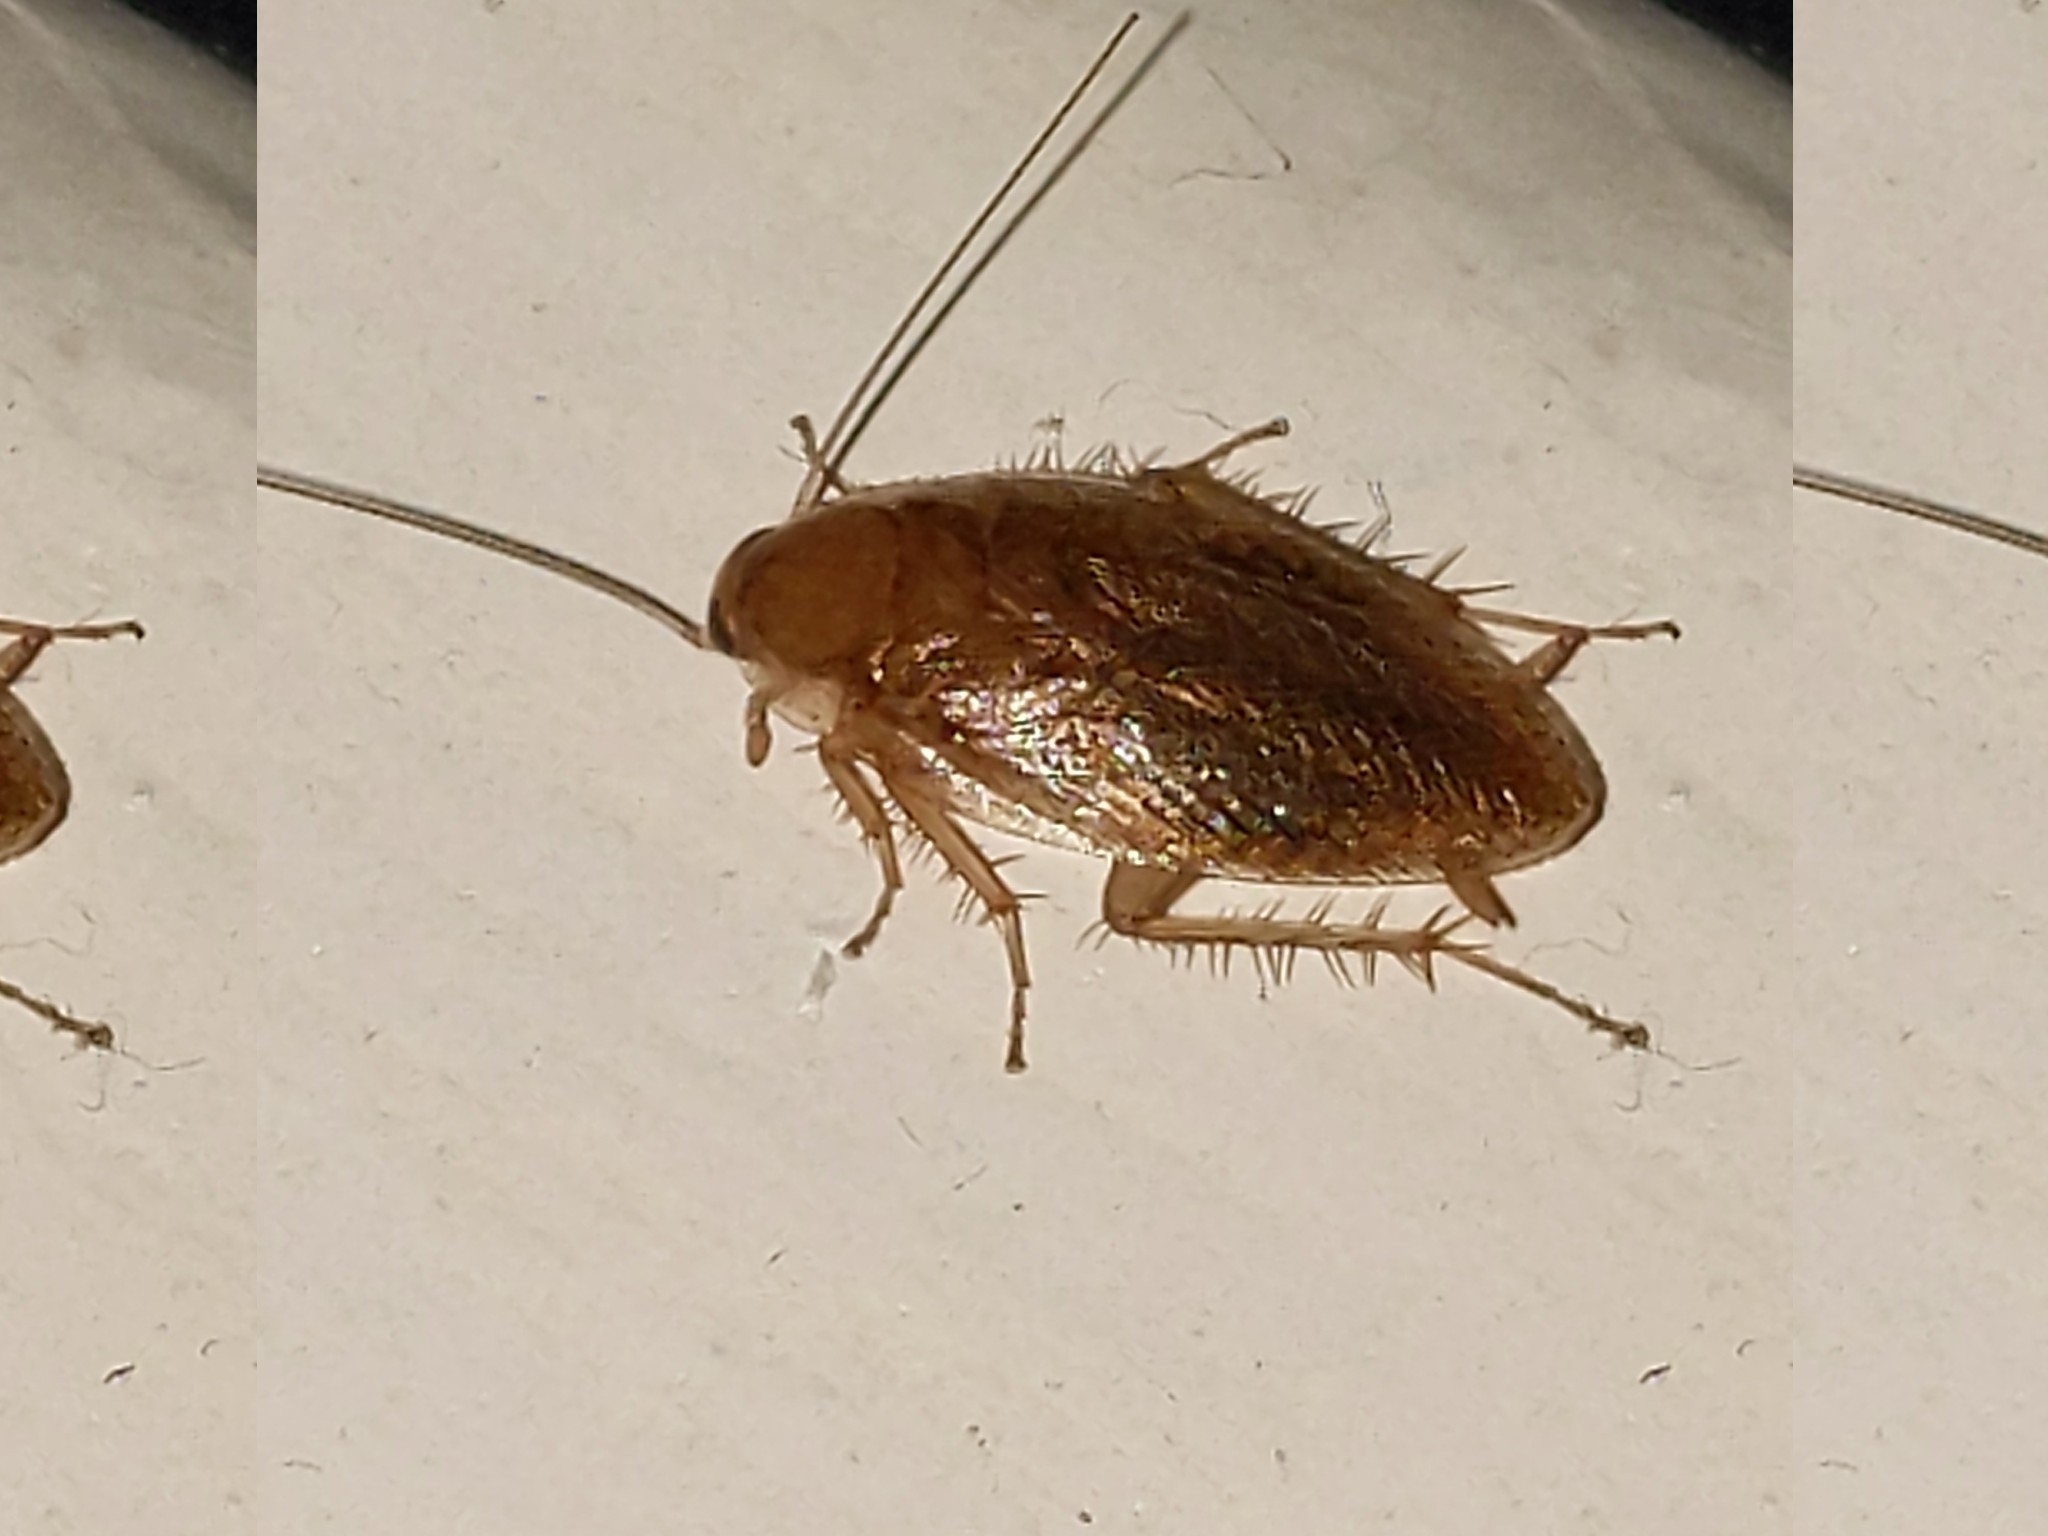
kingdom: Animalia
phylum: Arthropoda
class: Insecta
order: Blattodea
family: Ectobiidae
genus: Ectobius
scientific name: Ectobius pallidus
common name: Tawny cockroach
